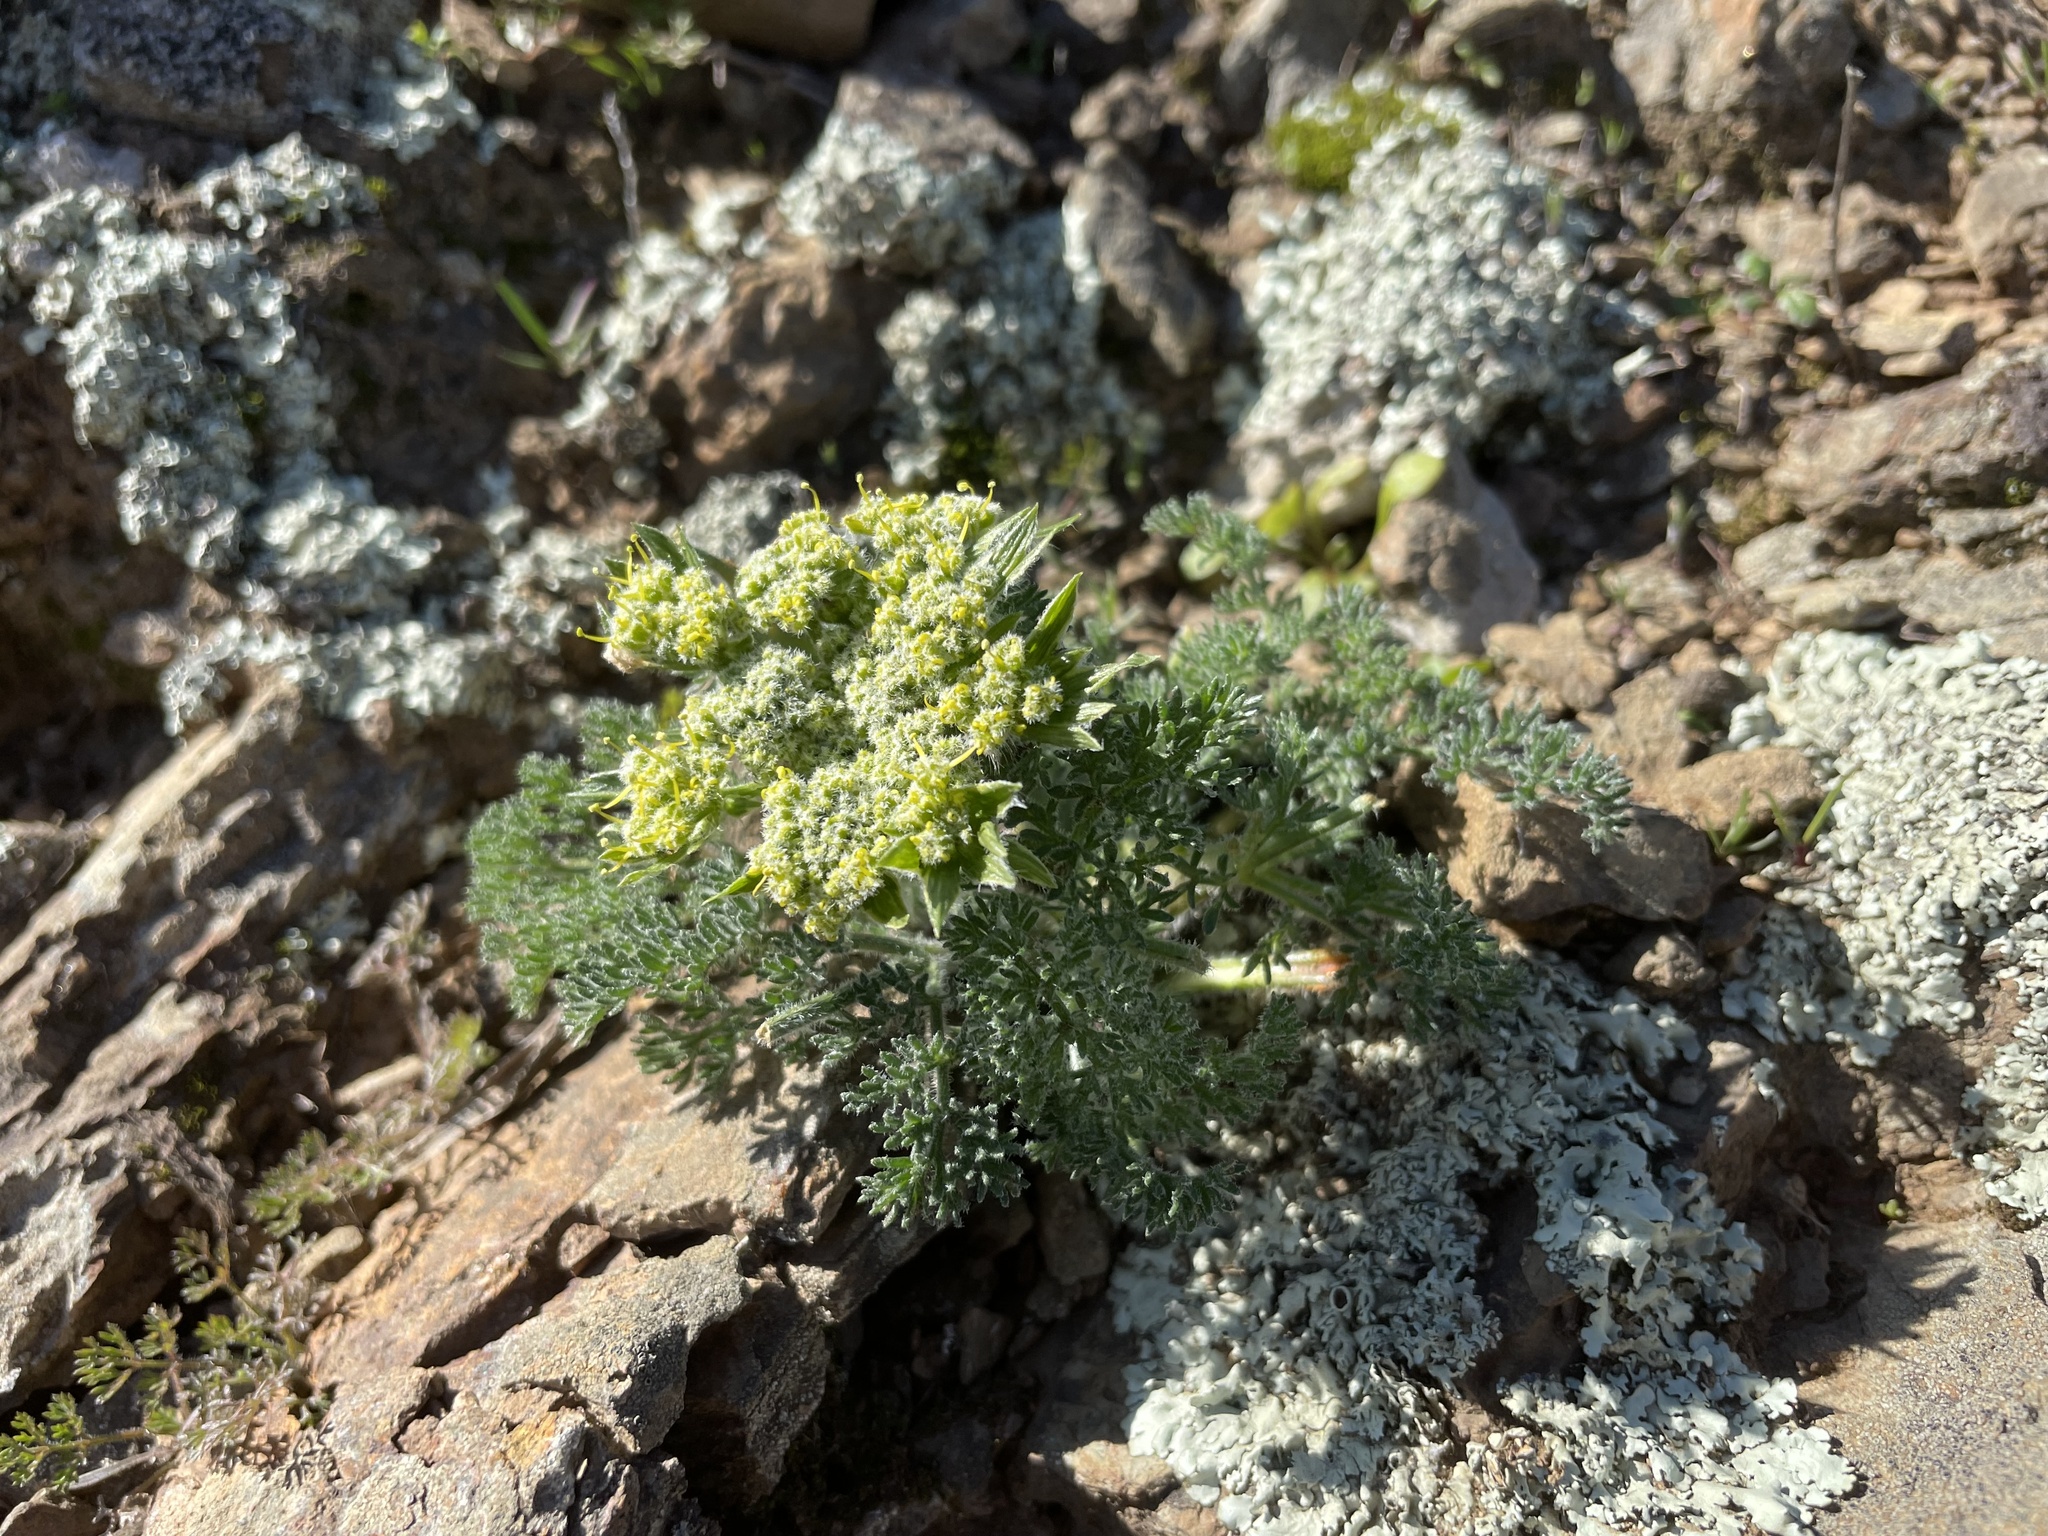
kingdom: Plantae
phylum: Tracheophyta
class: Magnoliopsida
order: Apiales
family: Apiaceae
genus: Lomatium
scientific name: Lomatium dasycarpum
